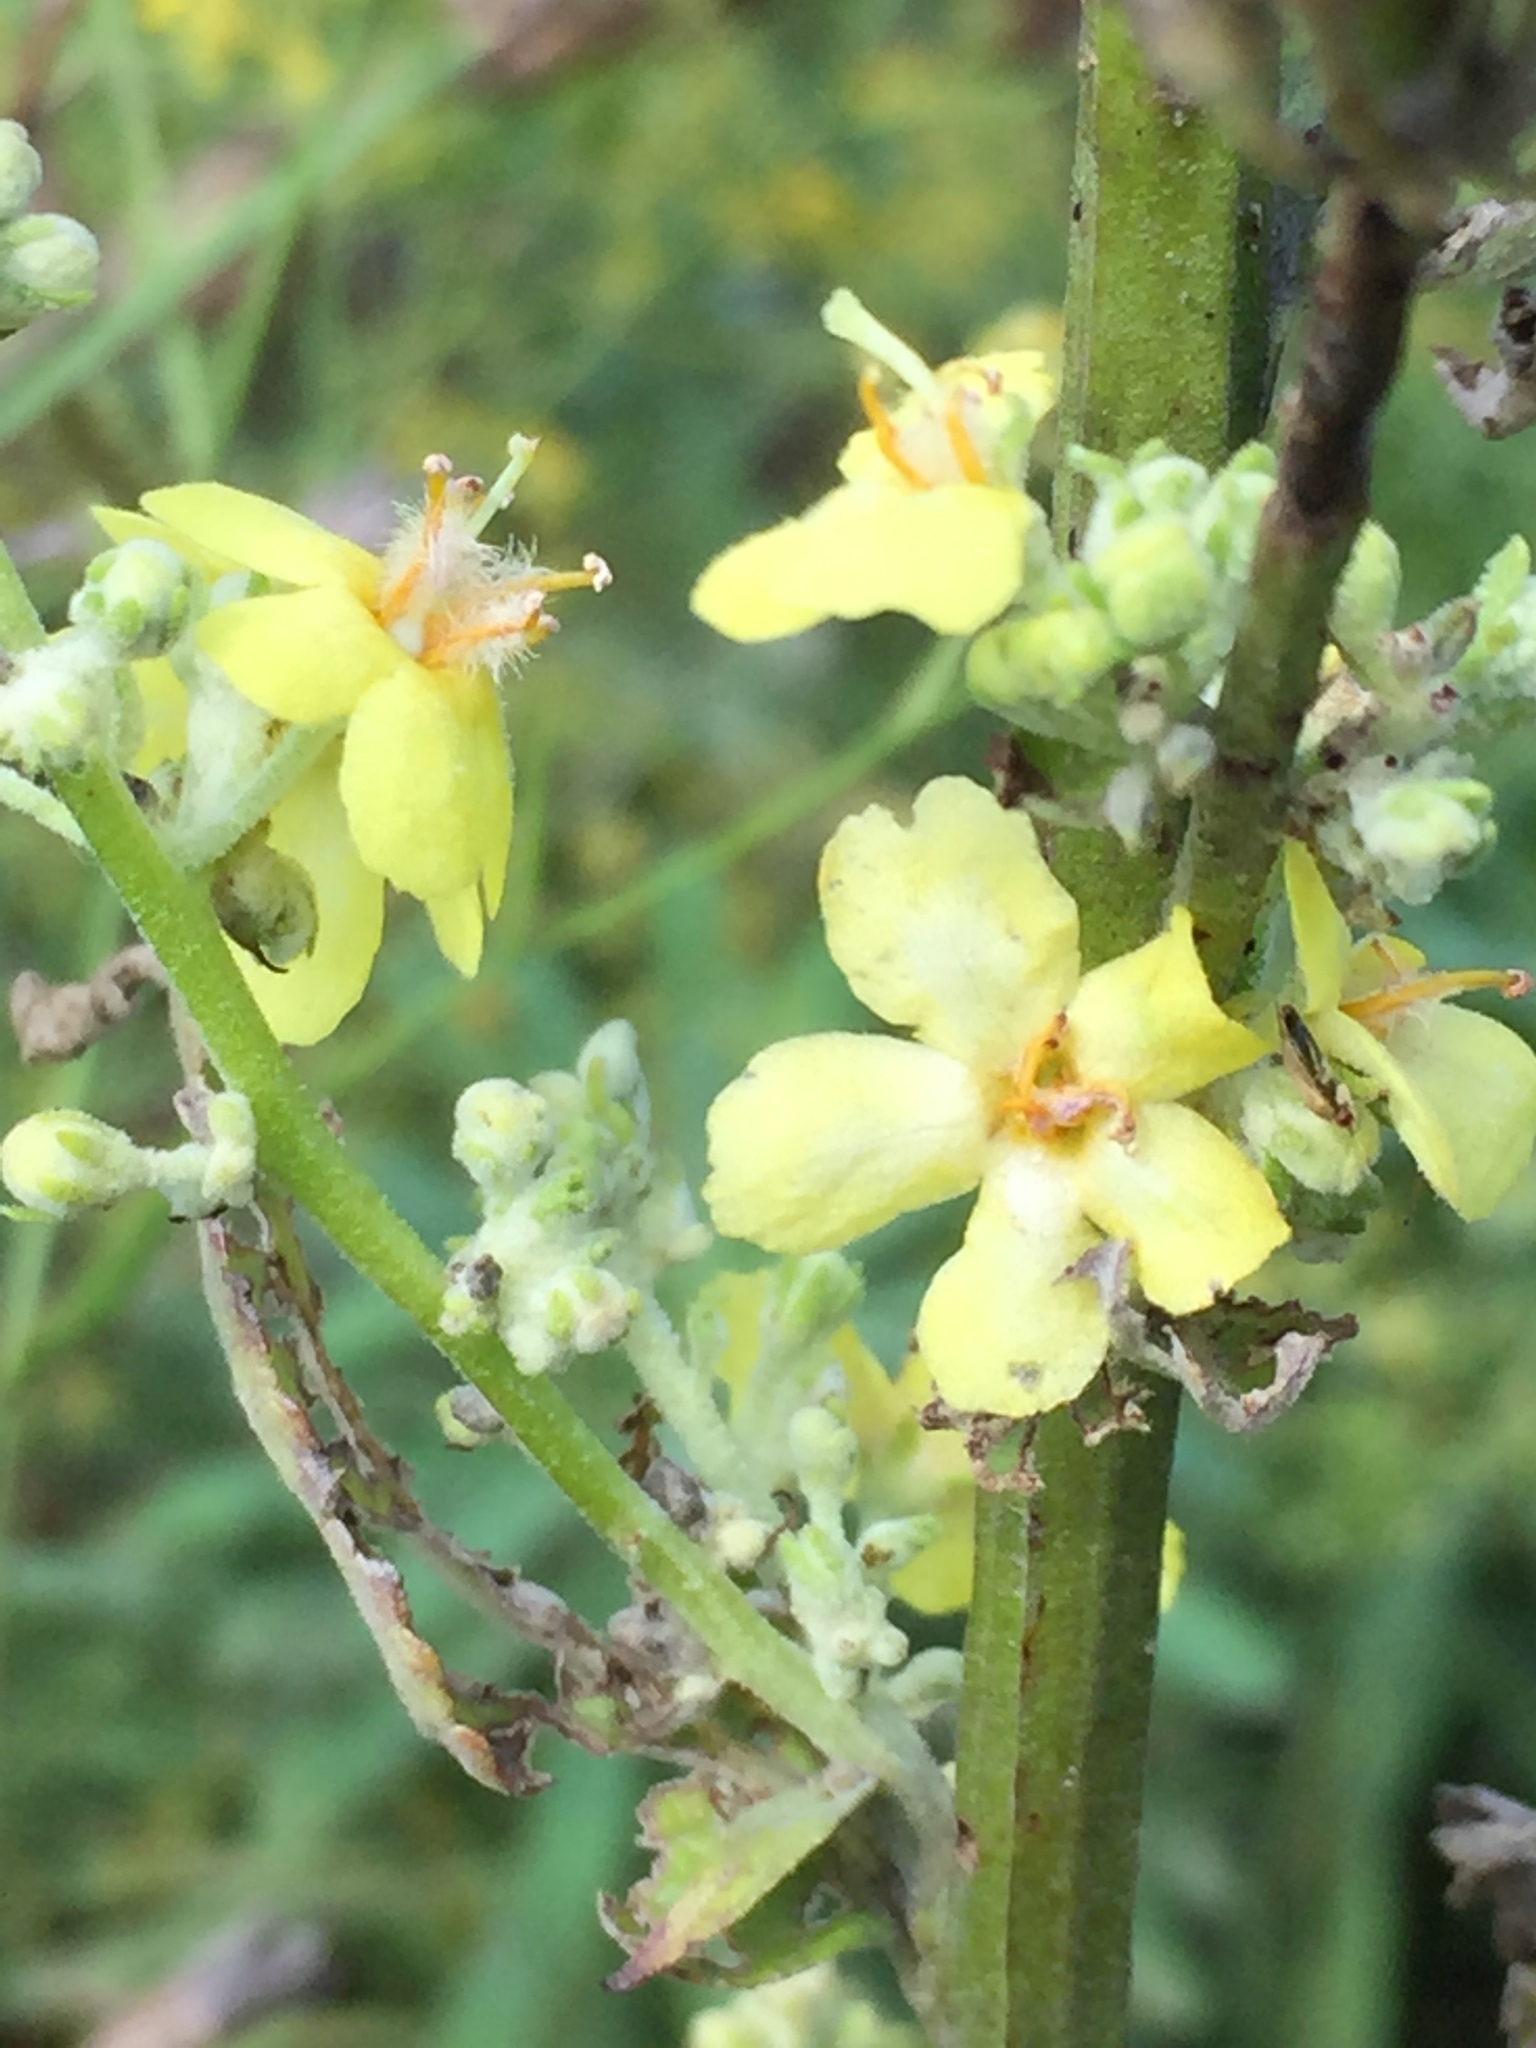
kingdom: Plantae
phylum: Tracheophyta
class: Magnoliopsida
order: Lamiales
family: Scrophulariaceae
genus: Verbascum
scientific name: Verbascum lychnitis
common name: White mullein
